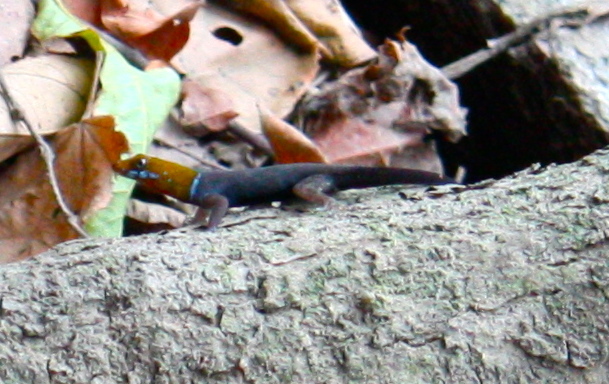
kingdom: Animalia
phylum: Chordata
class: Squamata
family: Sphaerodactylidae
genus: Gonatodes
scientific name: Gonatodes albogularis
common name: Yellow-headed gecko
